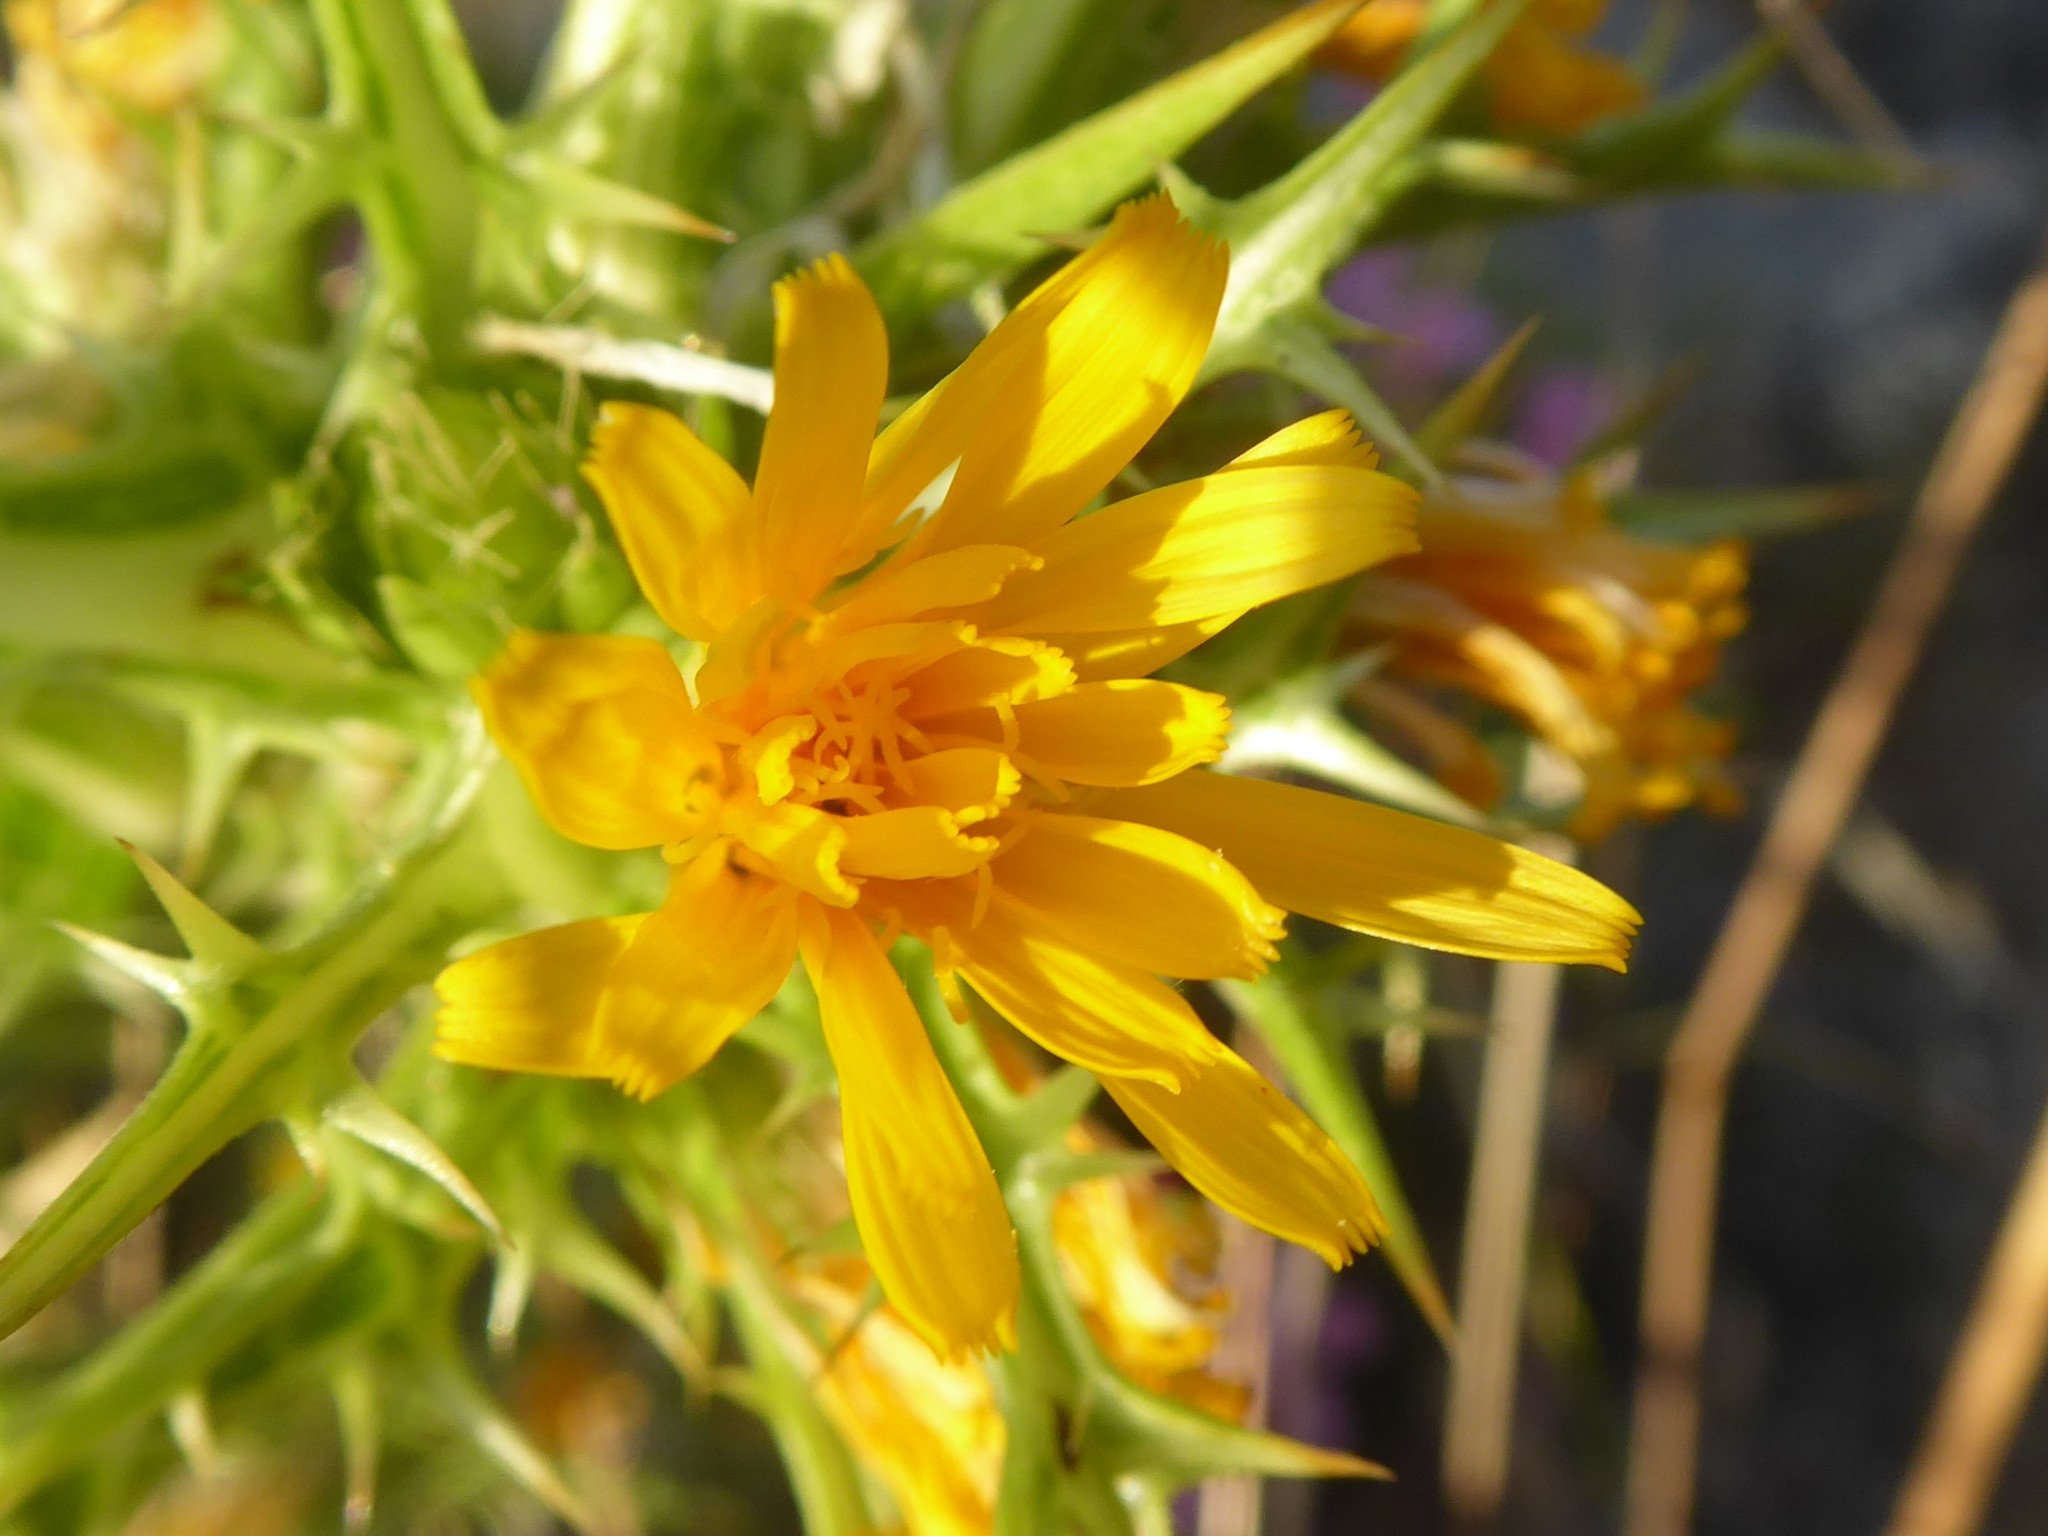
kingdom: Plantae
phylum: Tracheophyta
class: Magnoliopsida
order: Asterales
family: Asteraceae
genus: Scolymus
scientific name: Scolymus hispanicus
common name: Golden thistle
